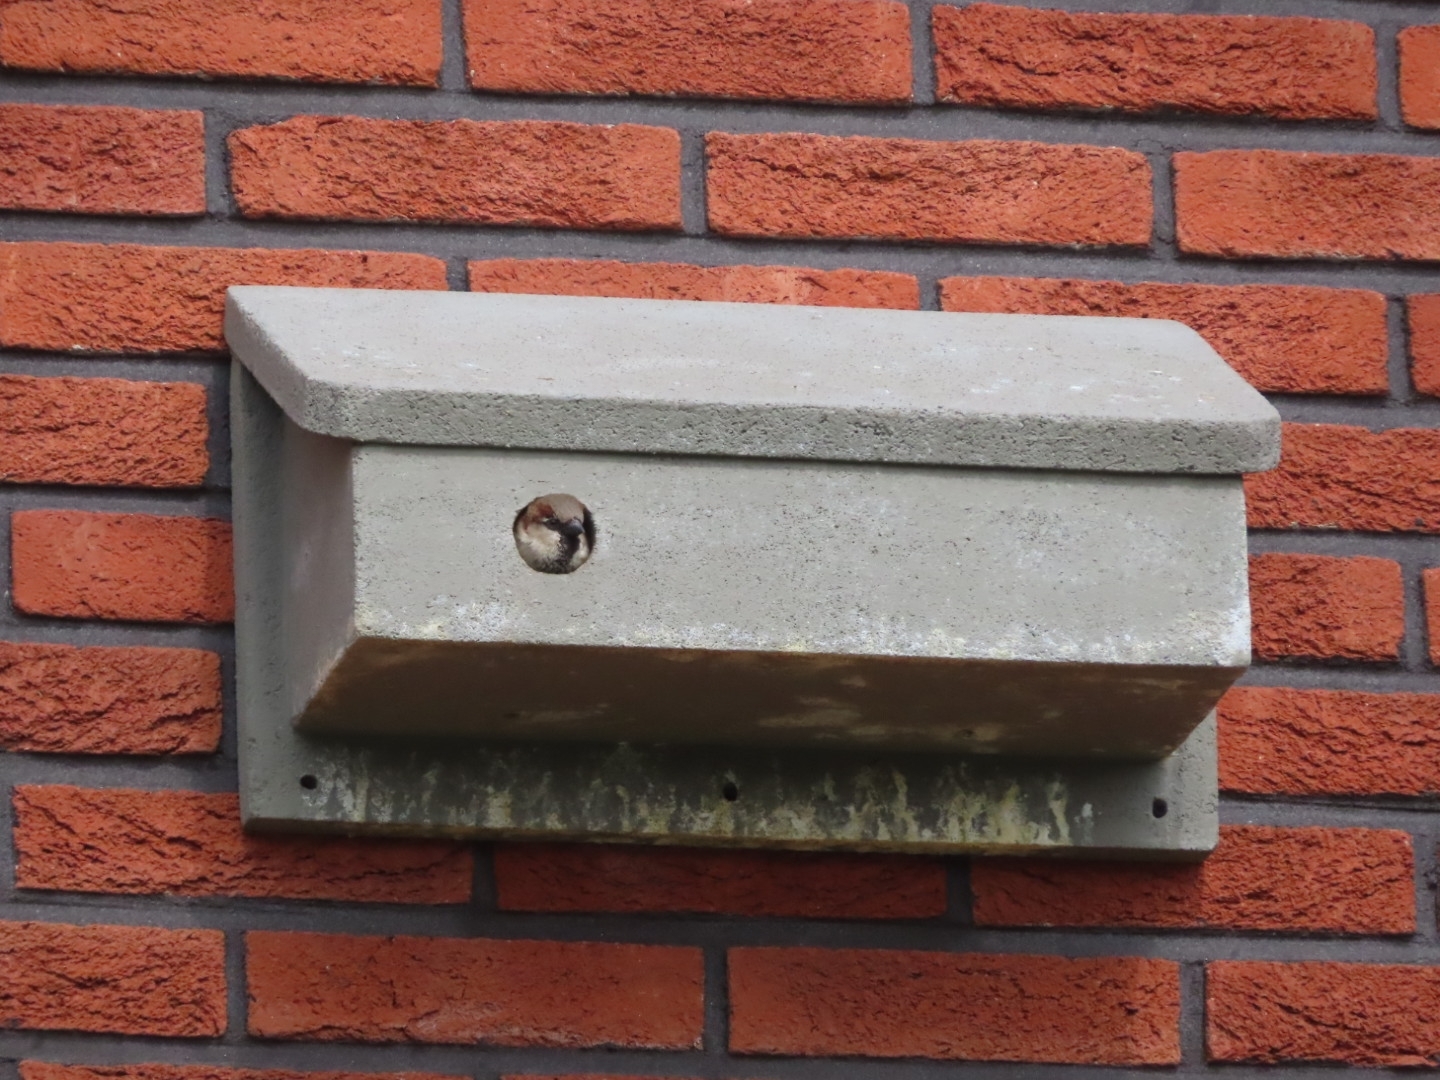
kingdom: Animalia
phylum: Chordata
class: Aves
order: Passeriformes
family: Passeridae
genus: Passer
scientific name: Passer domesticus
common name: House sparrow
